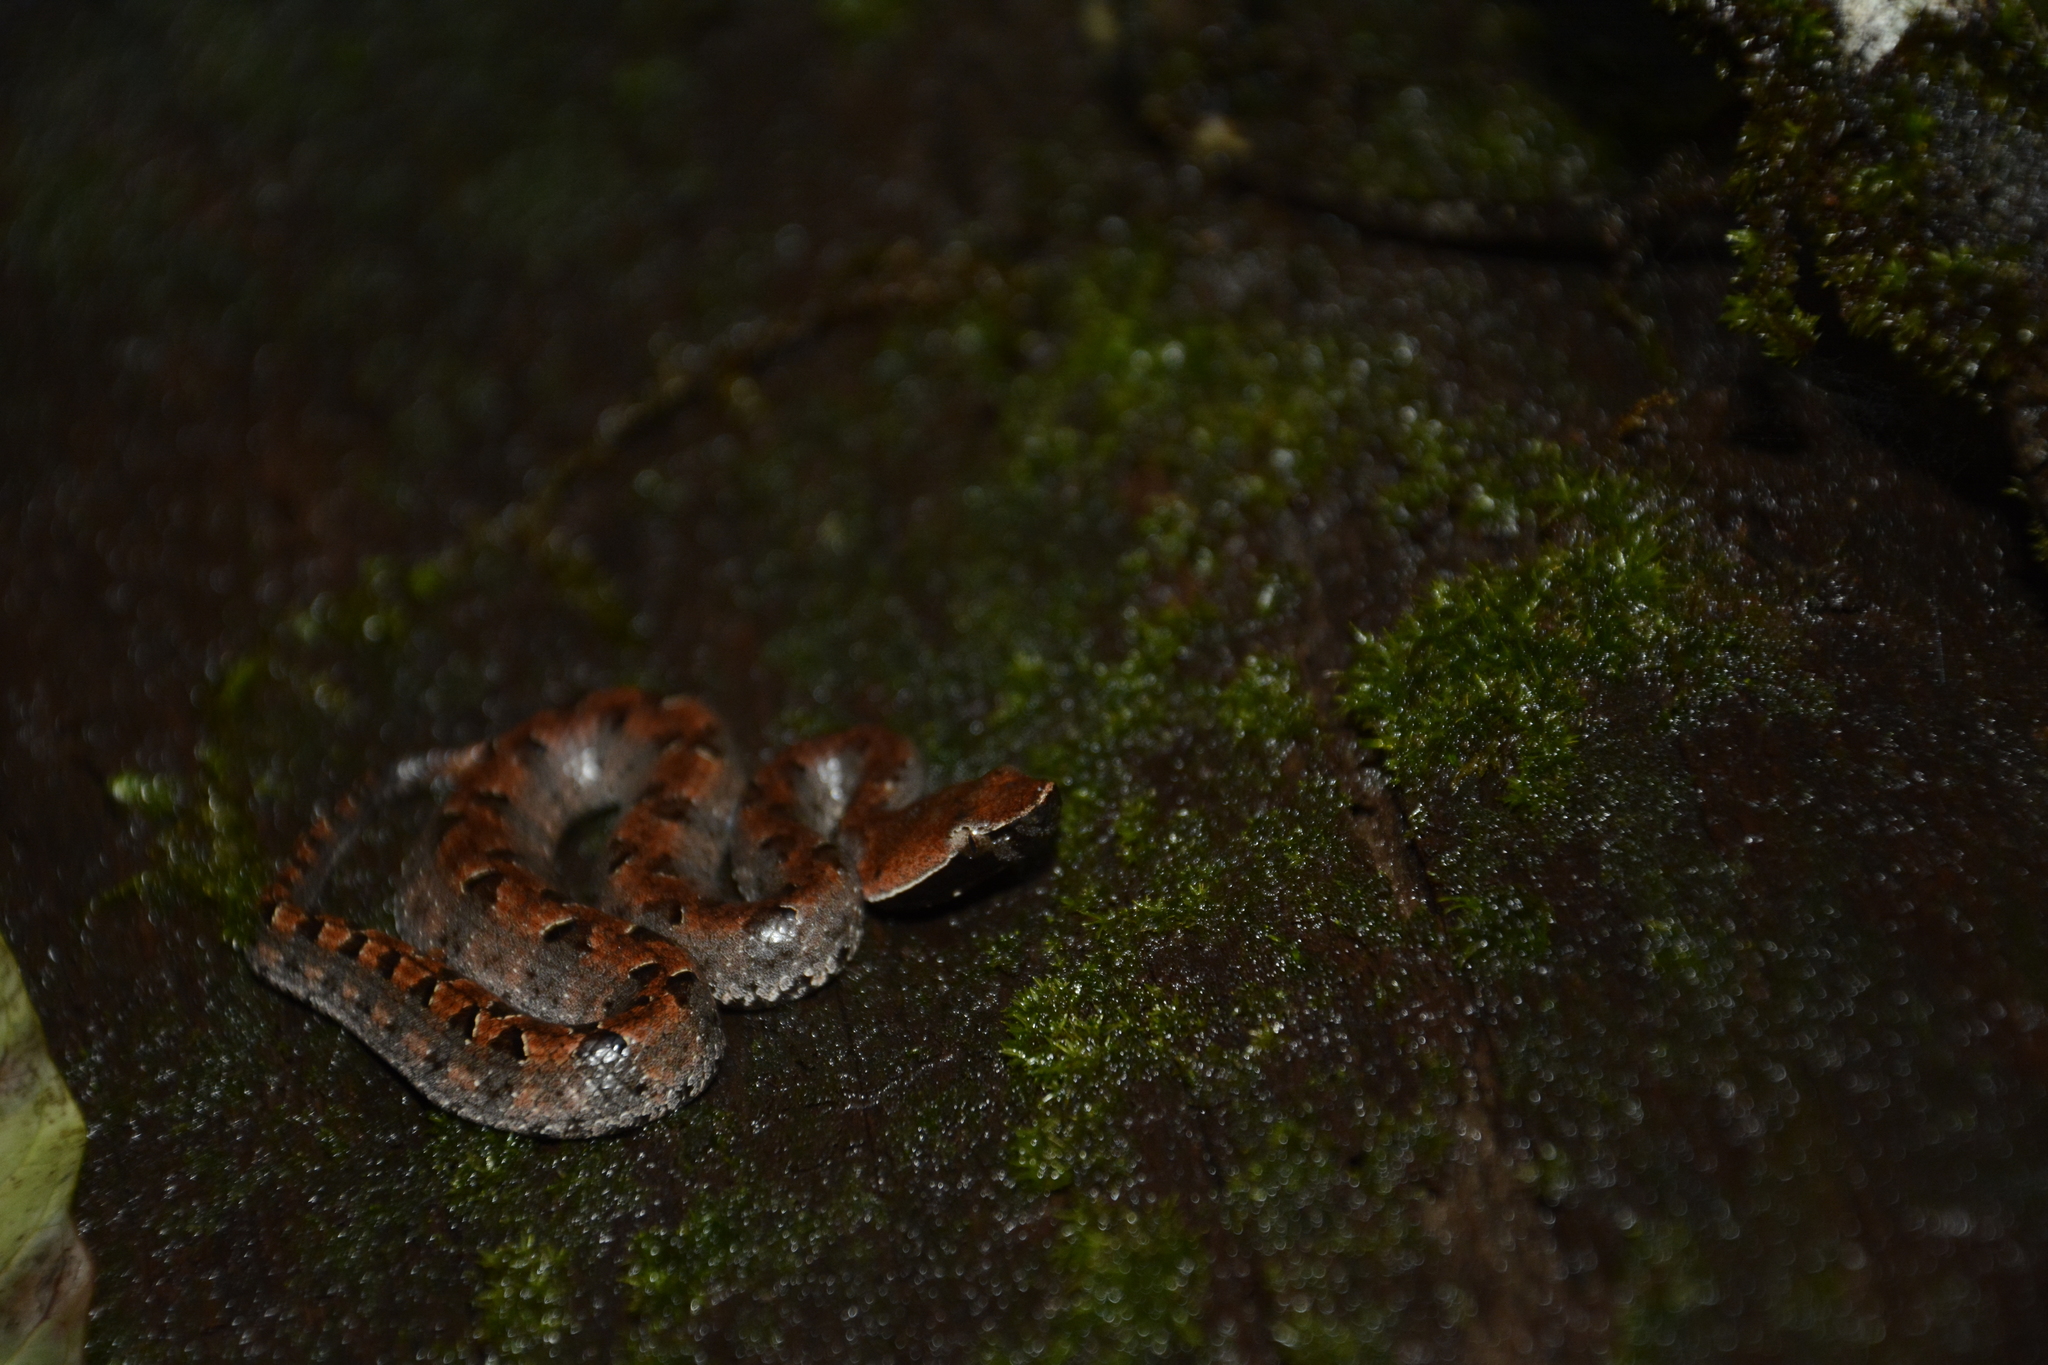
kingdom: Animalia
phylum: Chordata
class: Squamata
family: Viperidae
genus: Hypnale
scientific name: Hypnale hypnale
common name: Hump-nosed moccasin
